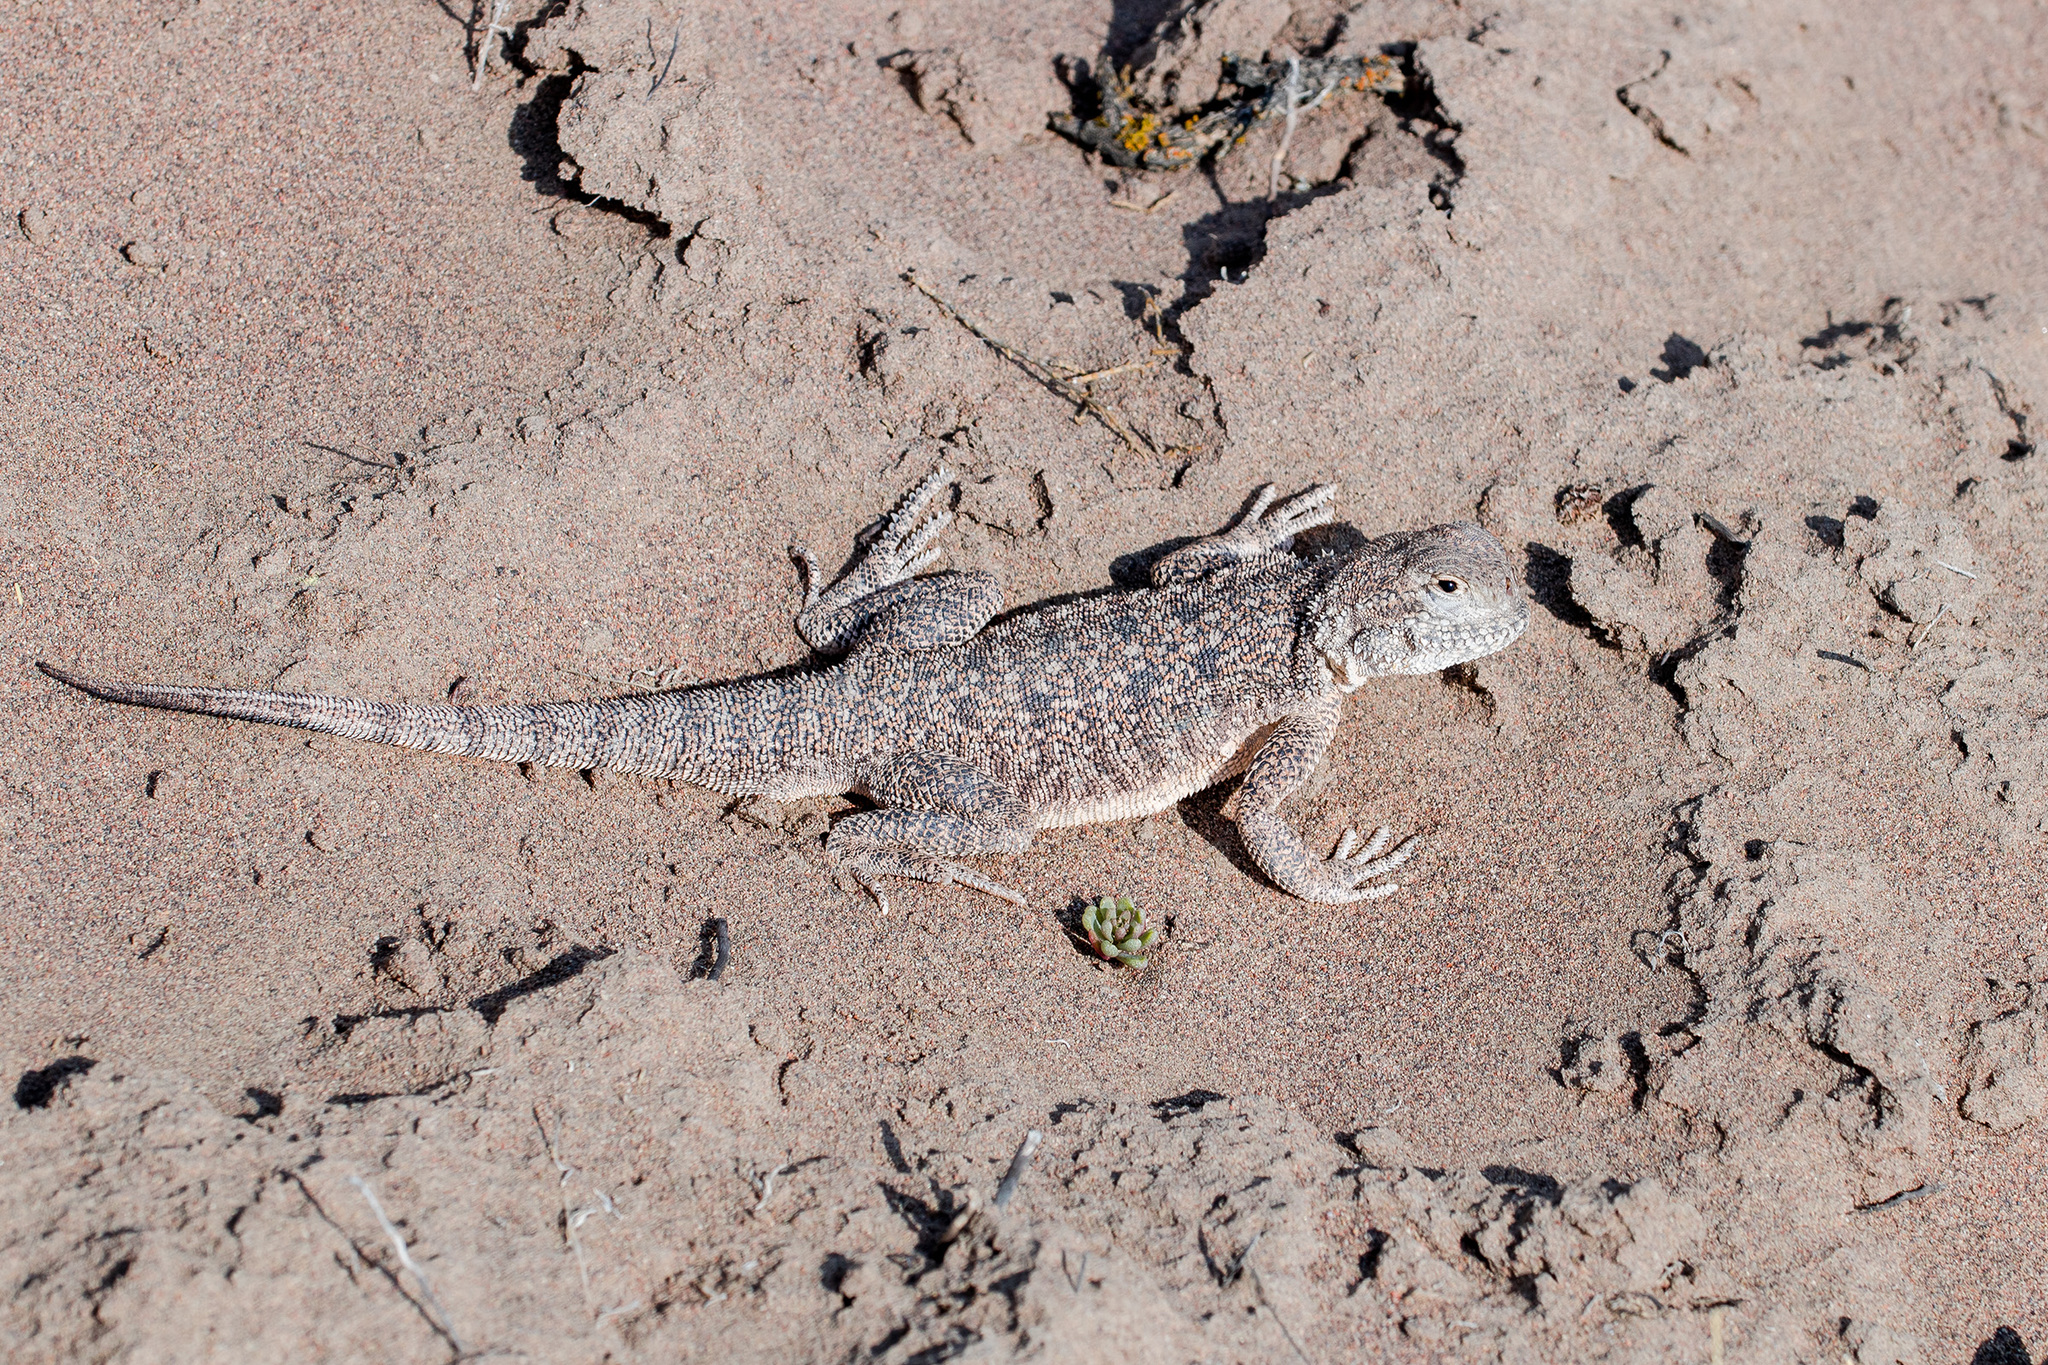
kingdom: Animalia
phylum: Chordata
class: Squamata
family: Agamidae
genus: Phrynocephalus
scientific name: Phrynocephalus mystaceus
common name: Secret toadhead agama
